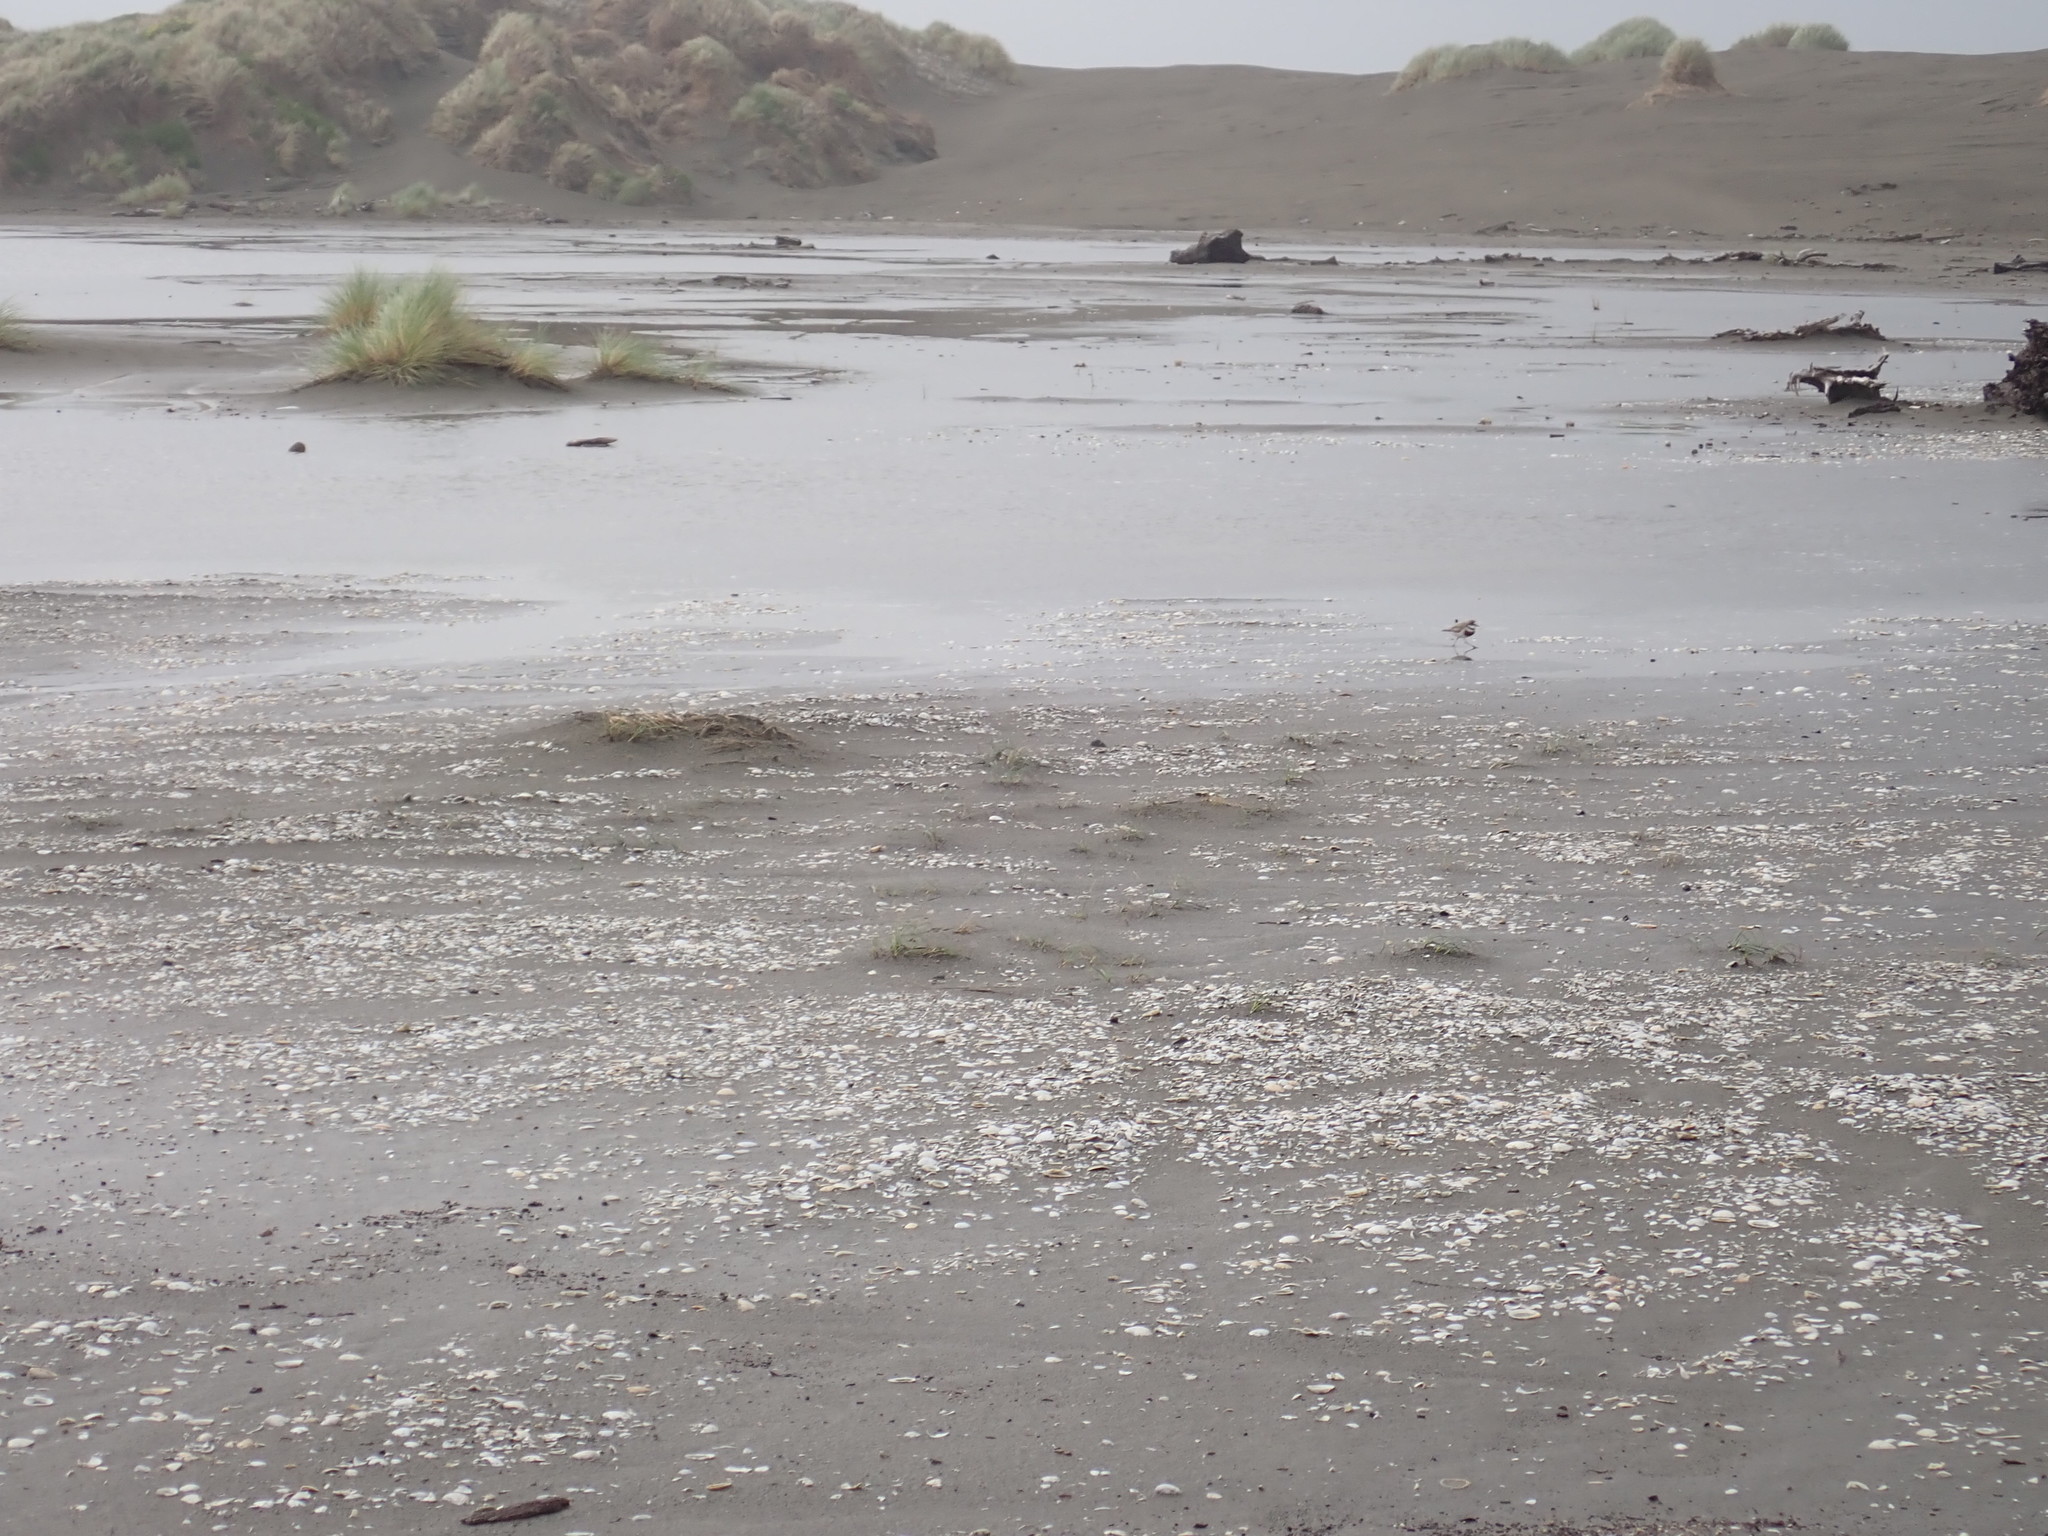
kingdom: Animalia
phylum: Chordata
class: Aves
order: Charadriiformes
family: Charadriidae
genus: Anarhynchus
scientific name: Anarhynchus
